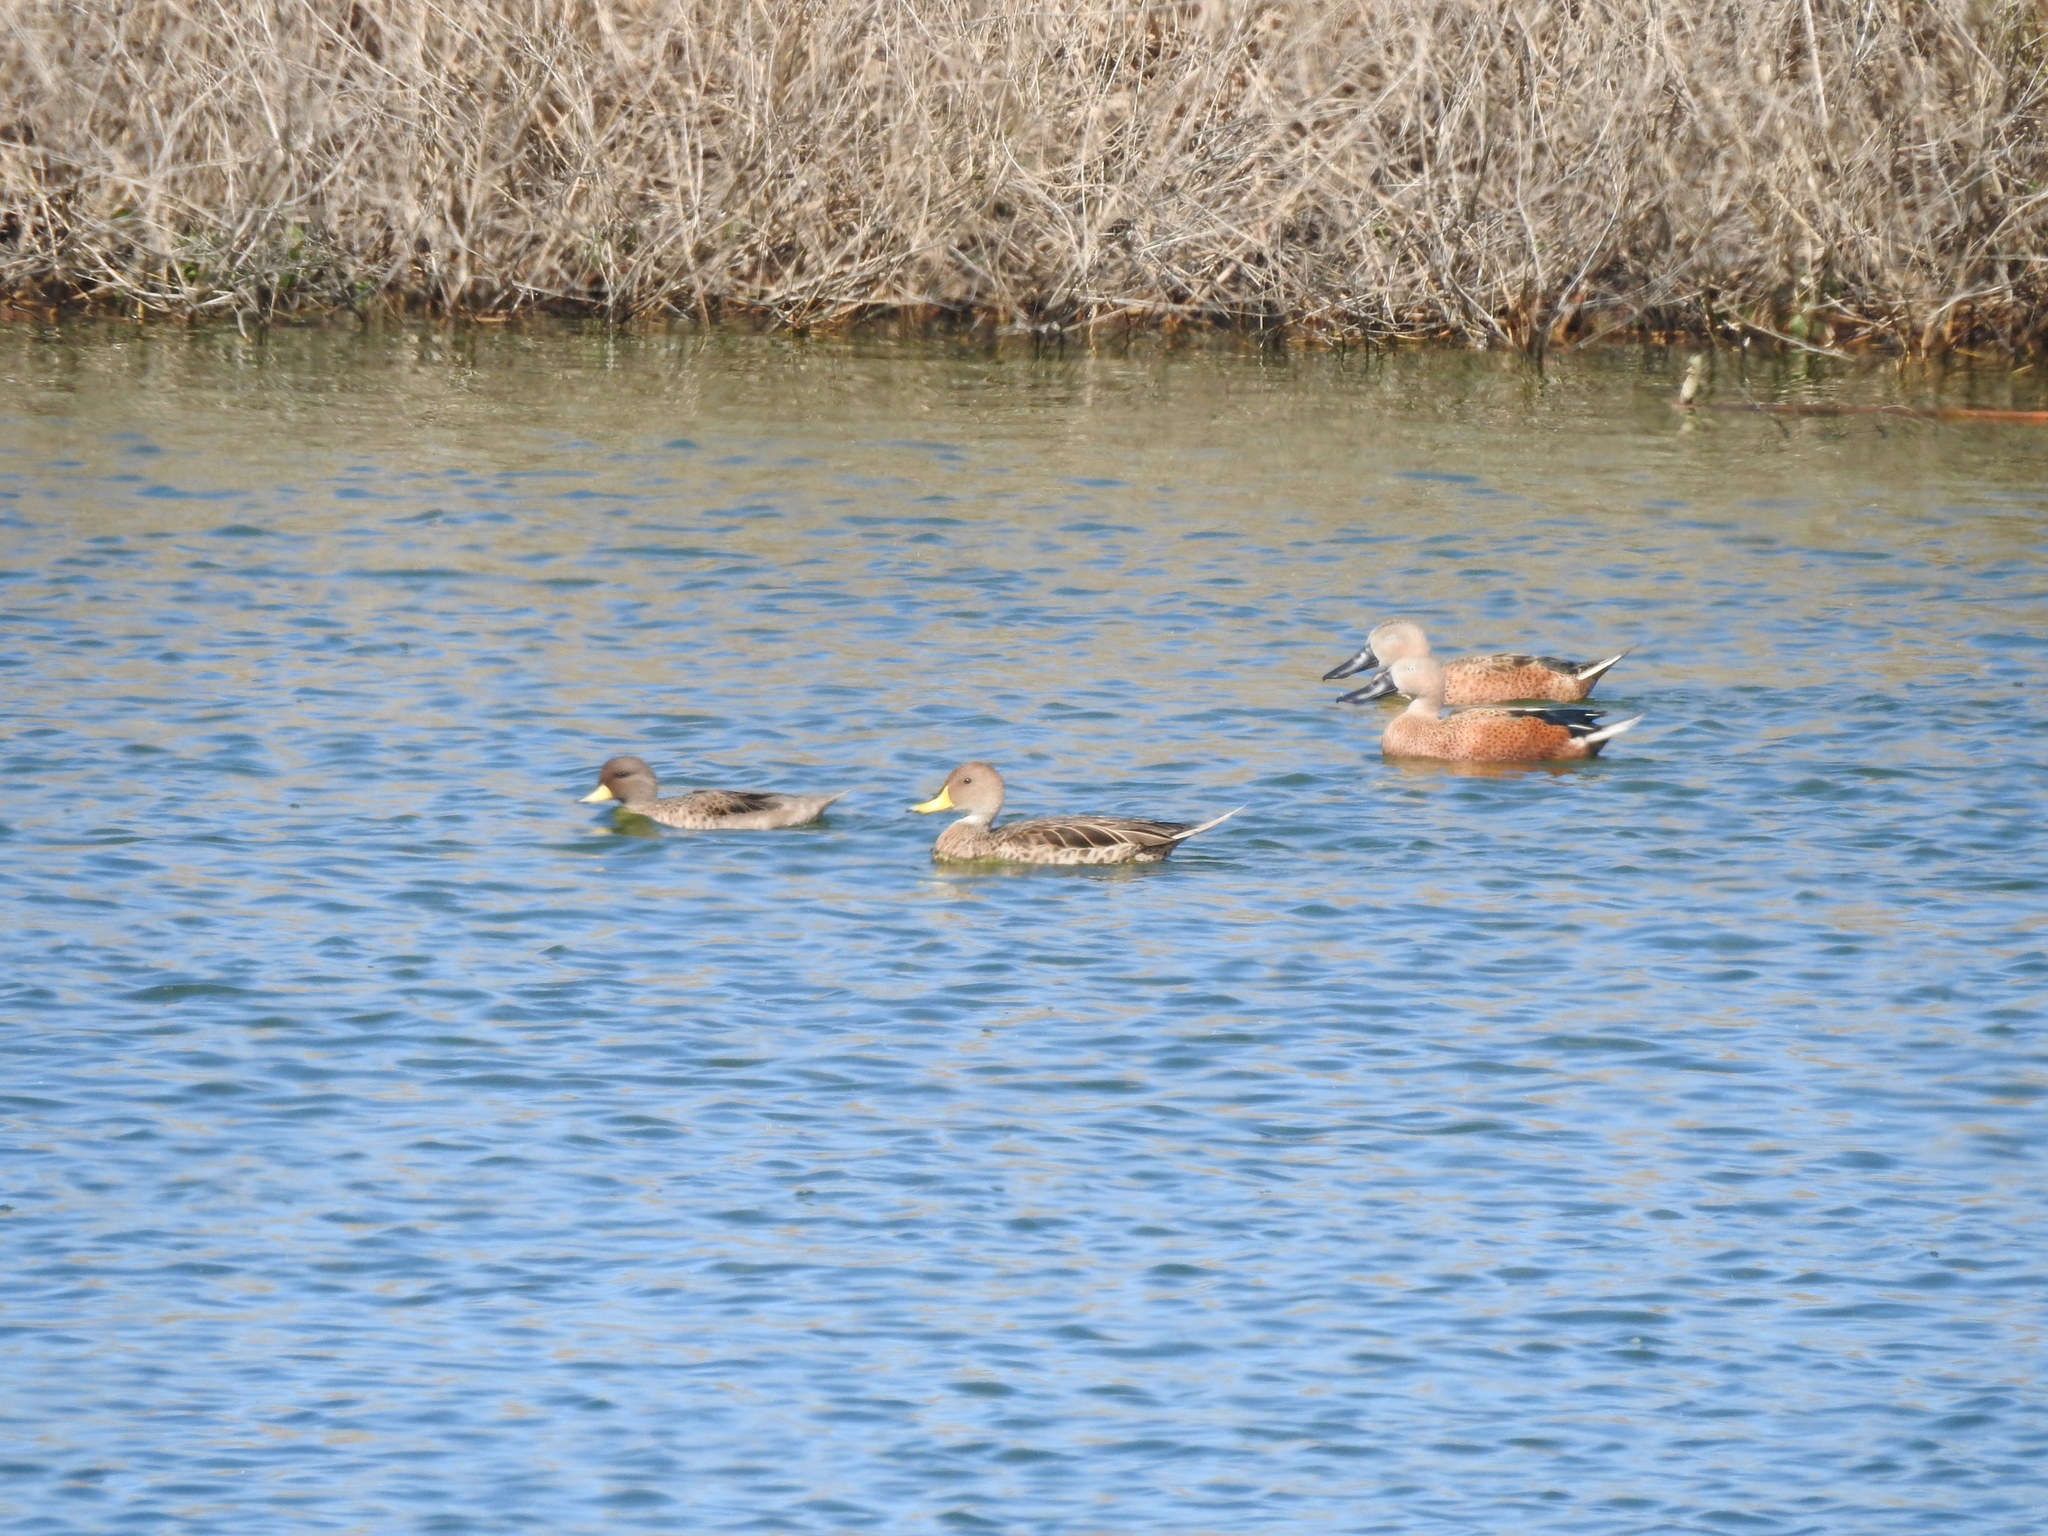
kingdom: Animalia
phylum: Chordata
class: Aves
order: Anseriformes
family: Anatidae
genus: Spatula
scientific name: Spatula platalea
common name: Red shoveler
